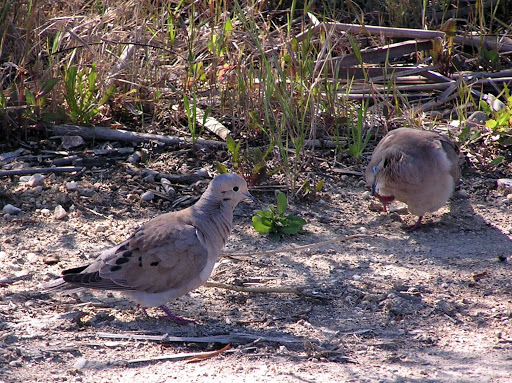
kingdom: Animalia
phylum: Chordata
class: Aves
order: Columbiformes
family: Columbidae
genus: Zenaida
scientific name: Zenaida macroura
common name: Mourning dove
